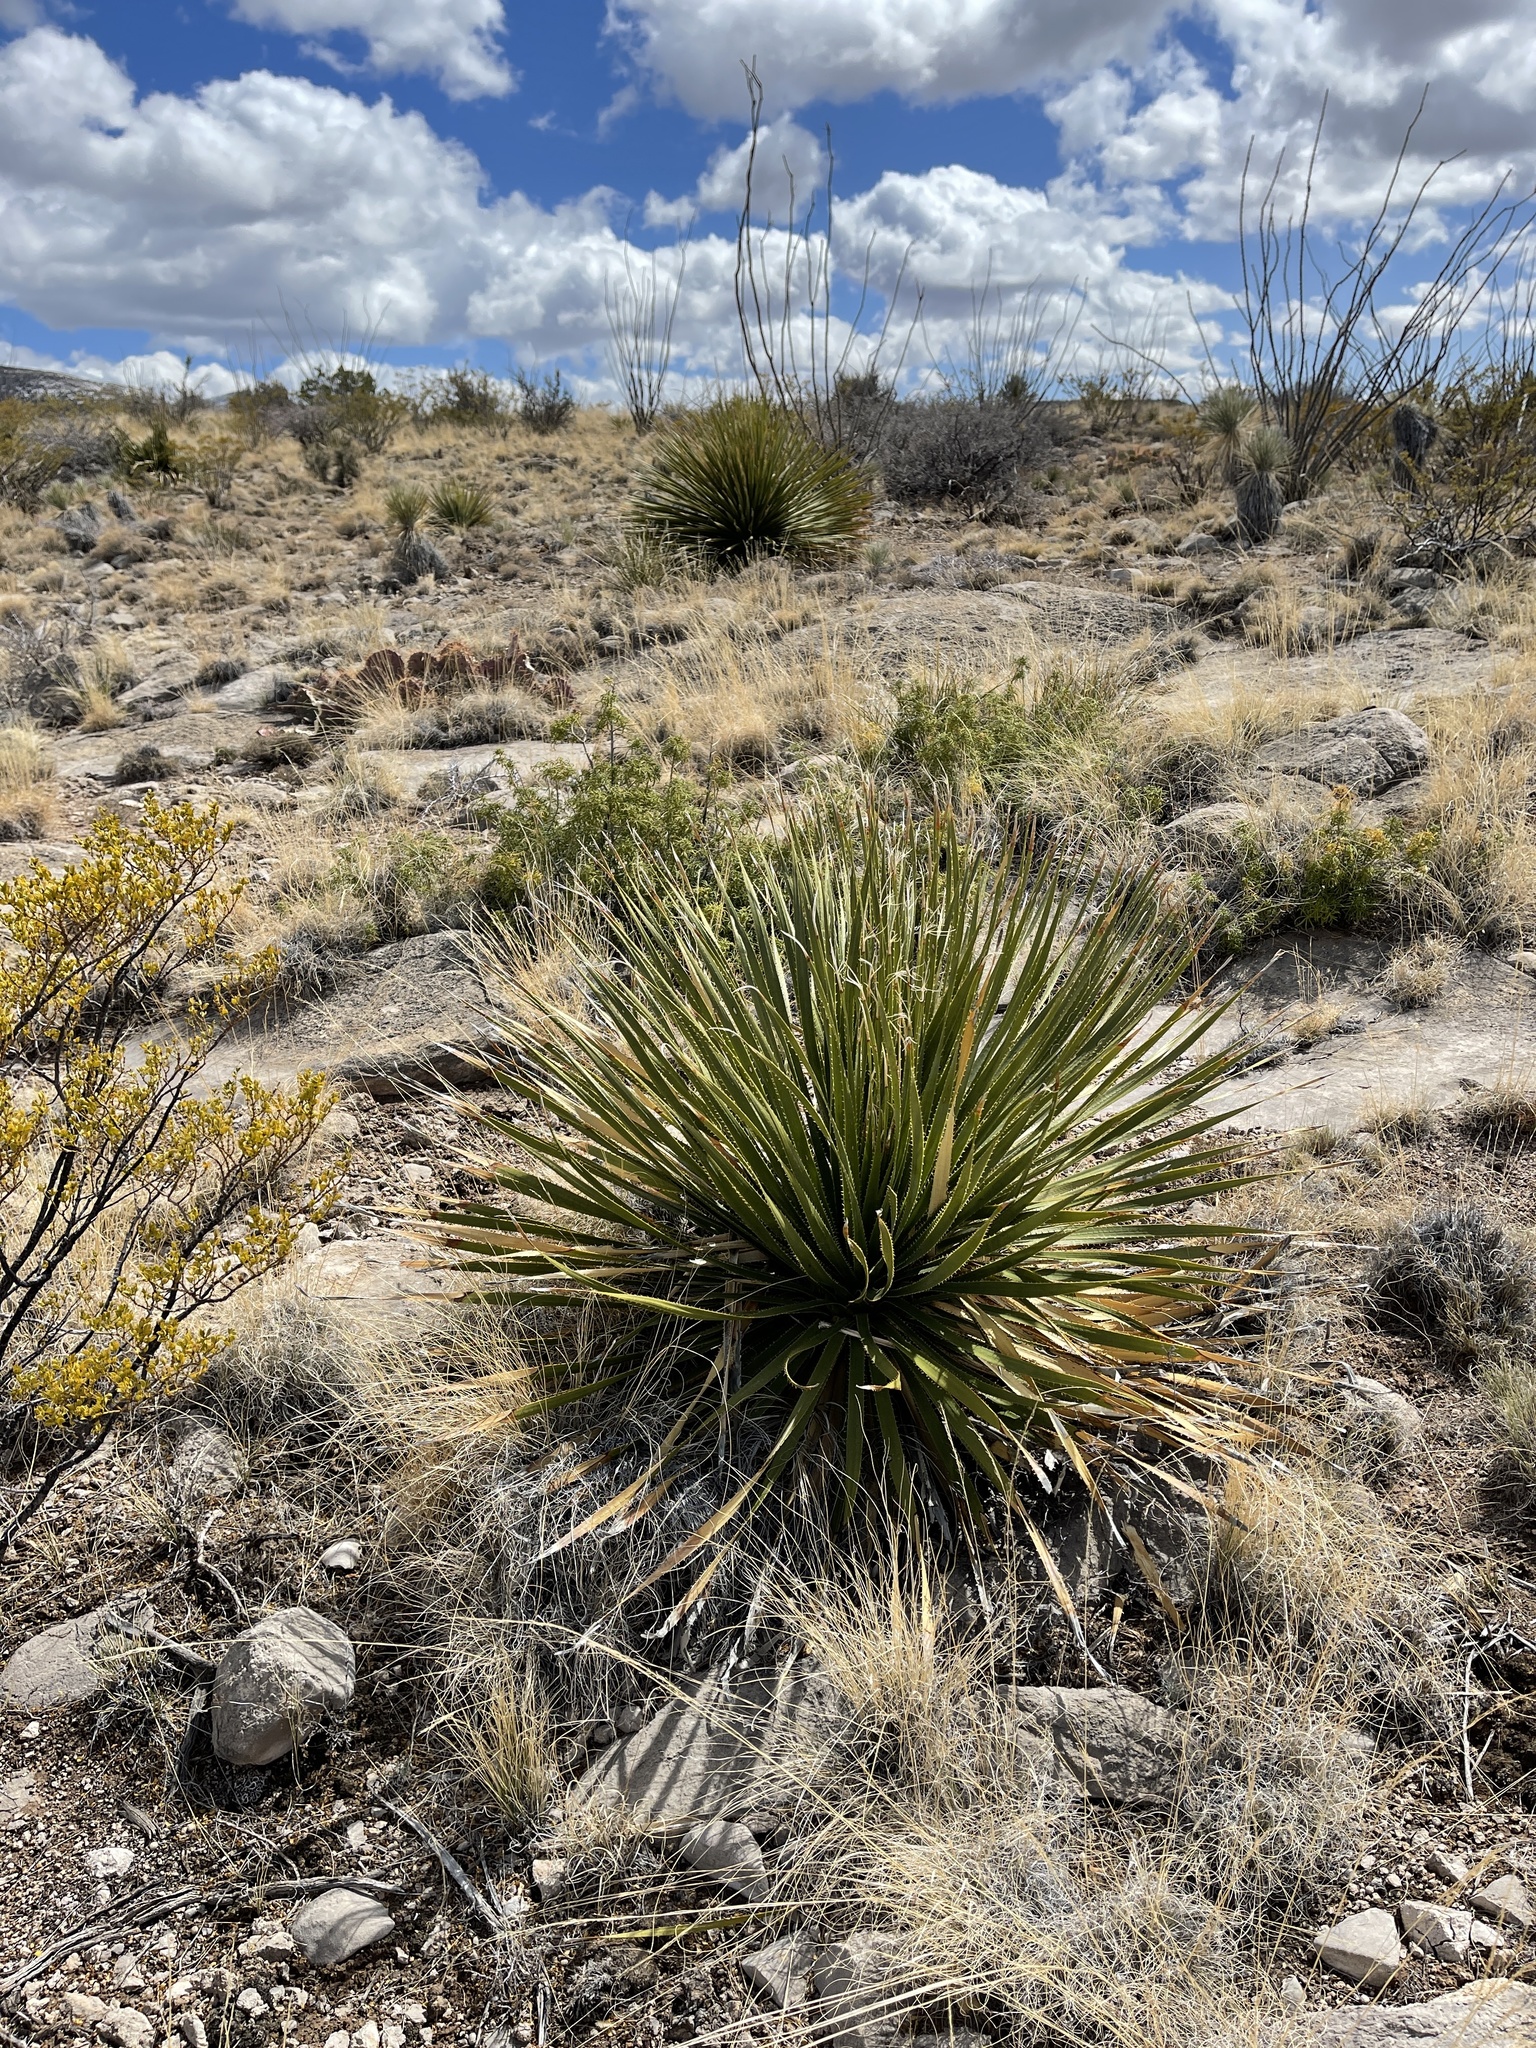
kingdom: Plantae
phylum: Tracheophyta
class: Liliopsida
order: Asparagales
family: Asparagaceae
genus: Dasylirion
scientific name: Dasylirion wheeleri
